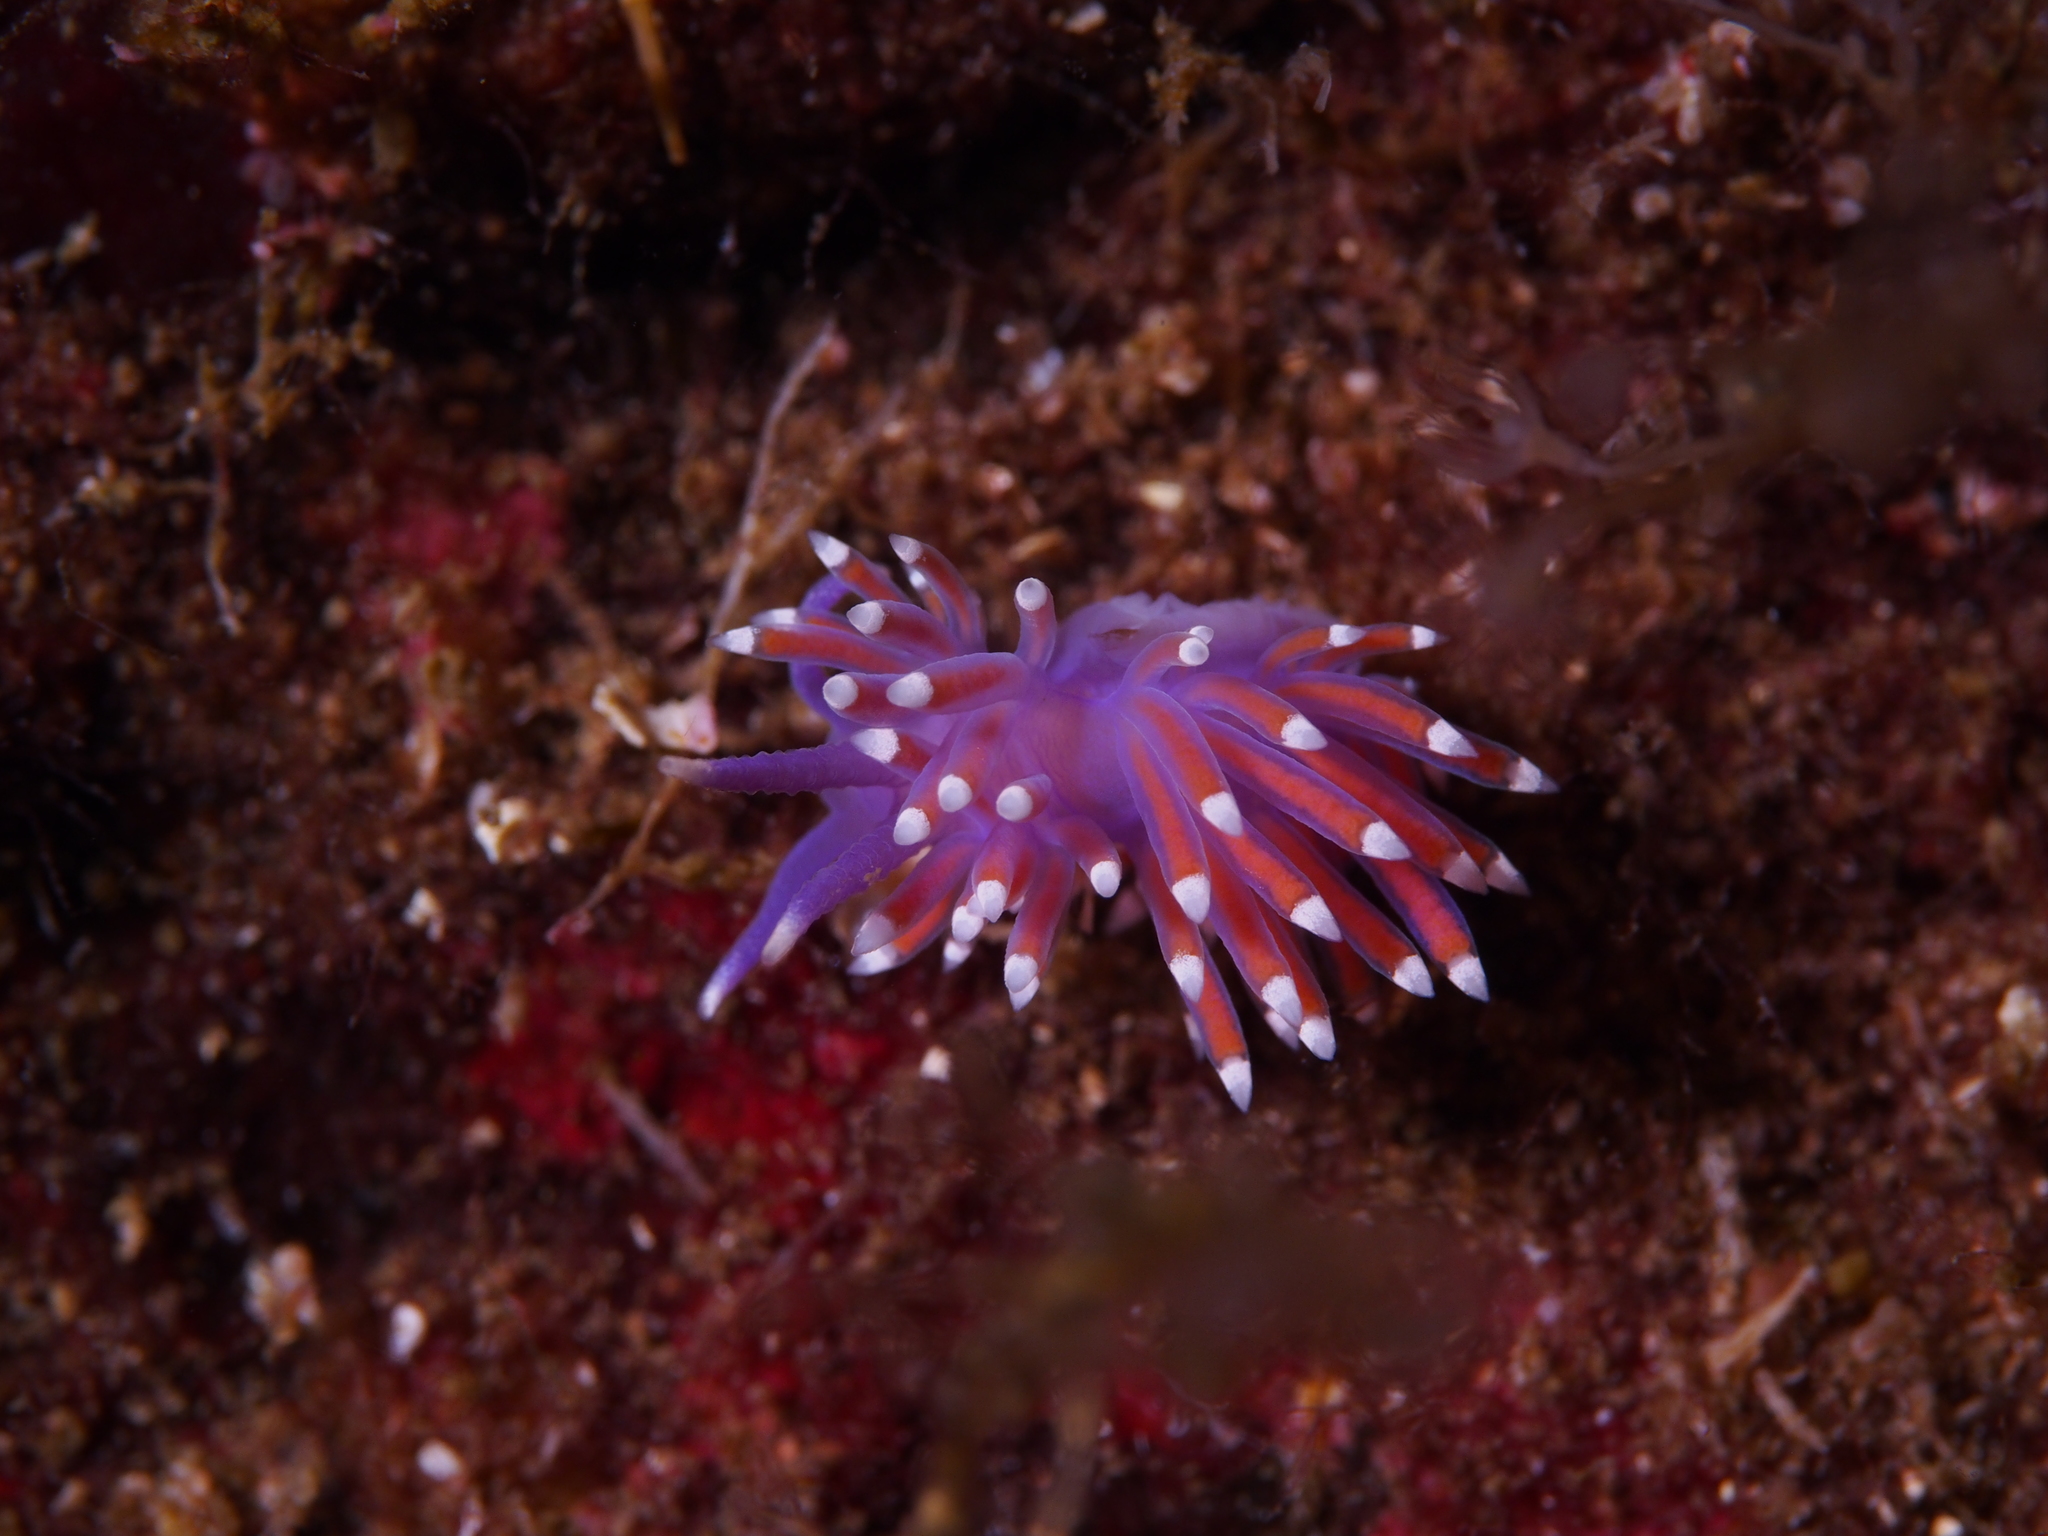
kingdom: Animalia
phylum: Mollusca
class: Gastropoda
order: Nudibranchia
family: Flabellinidae
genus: Edmundsella
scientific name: Edmundsella pedata
